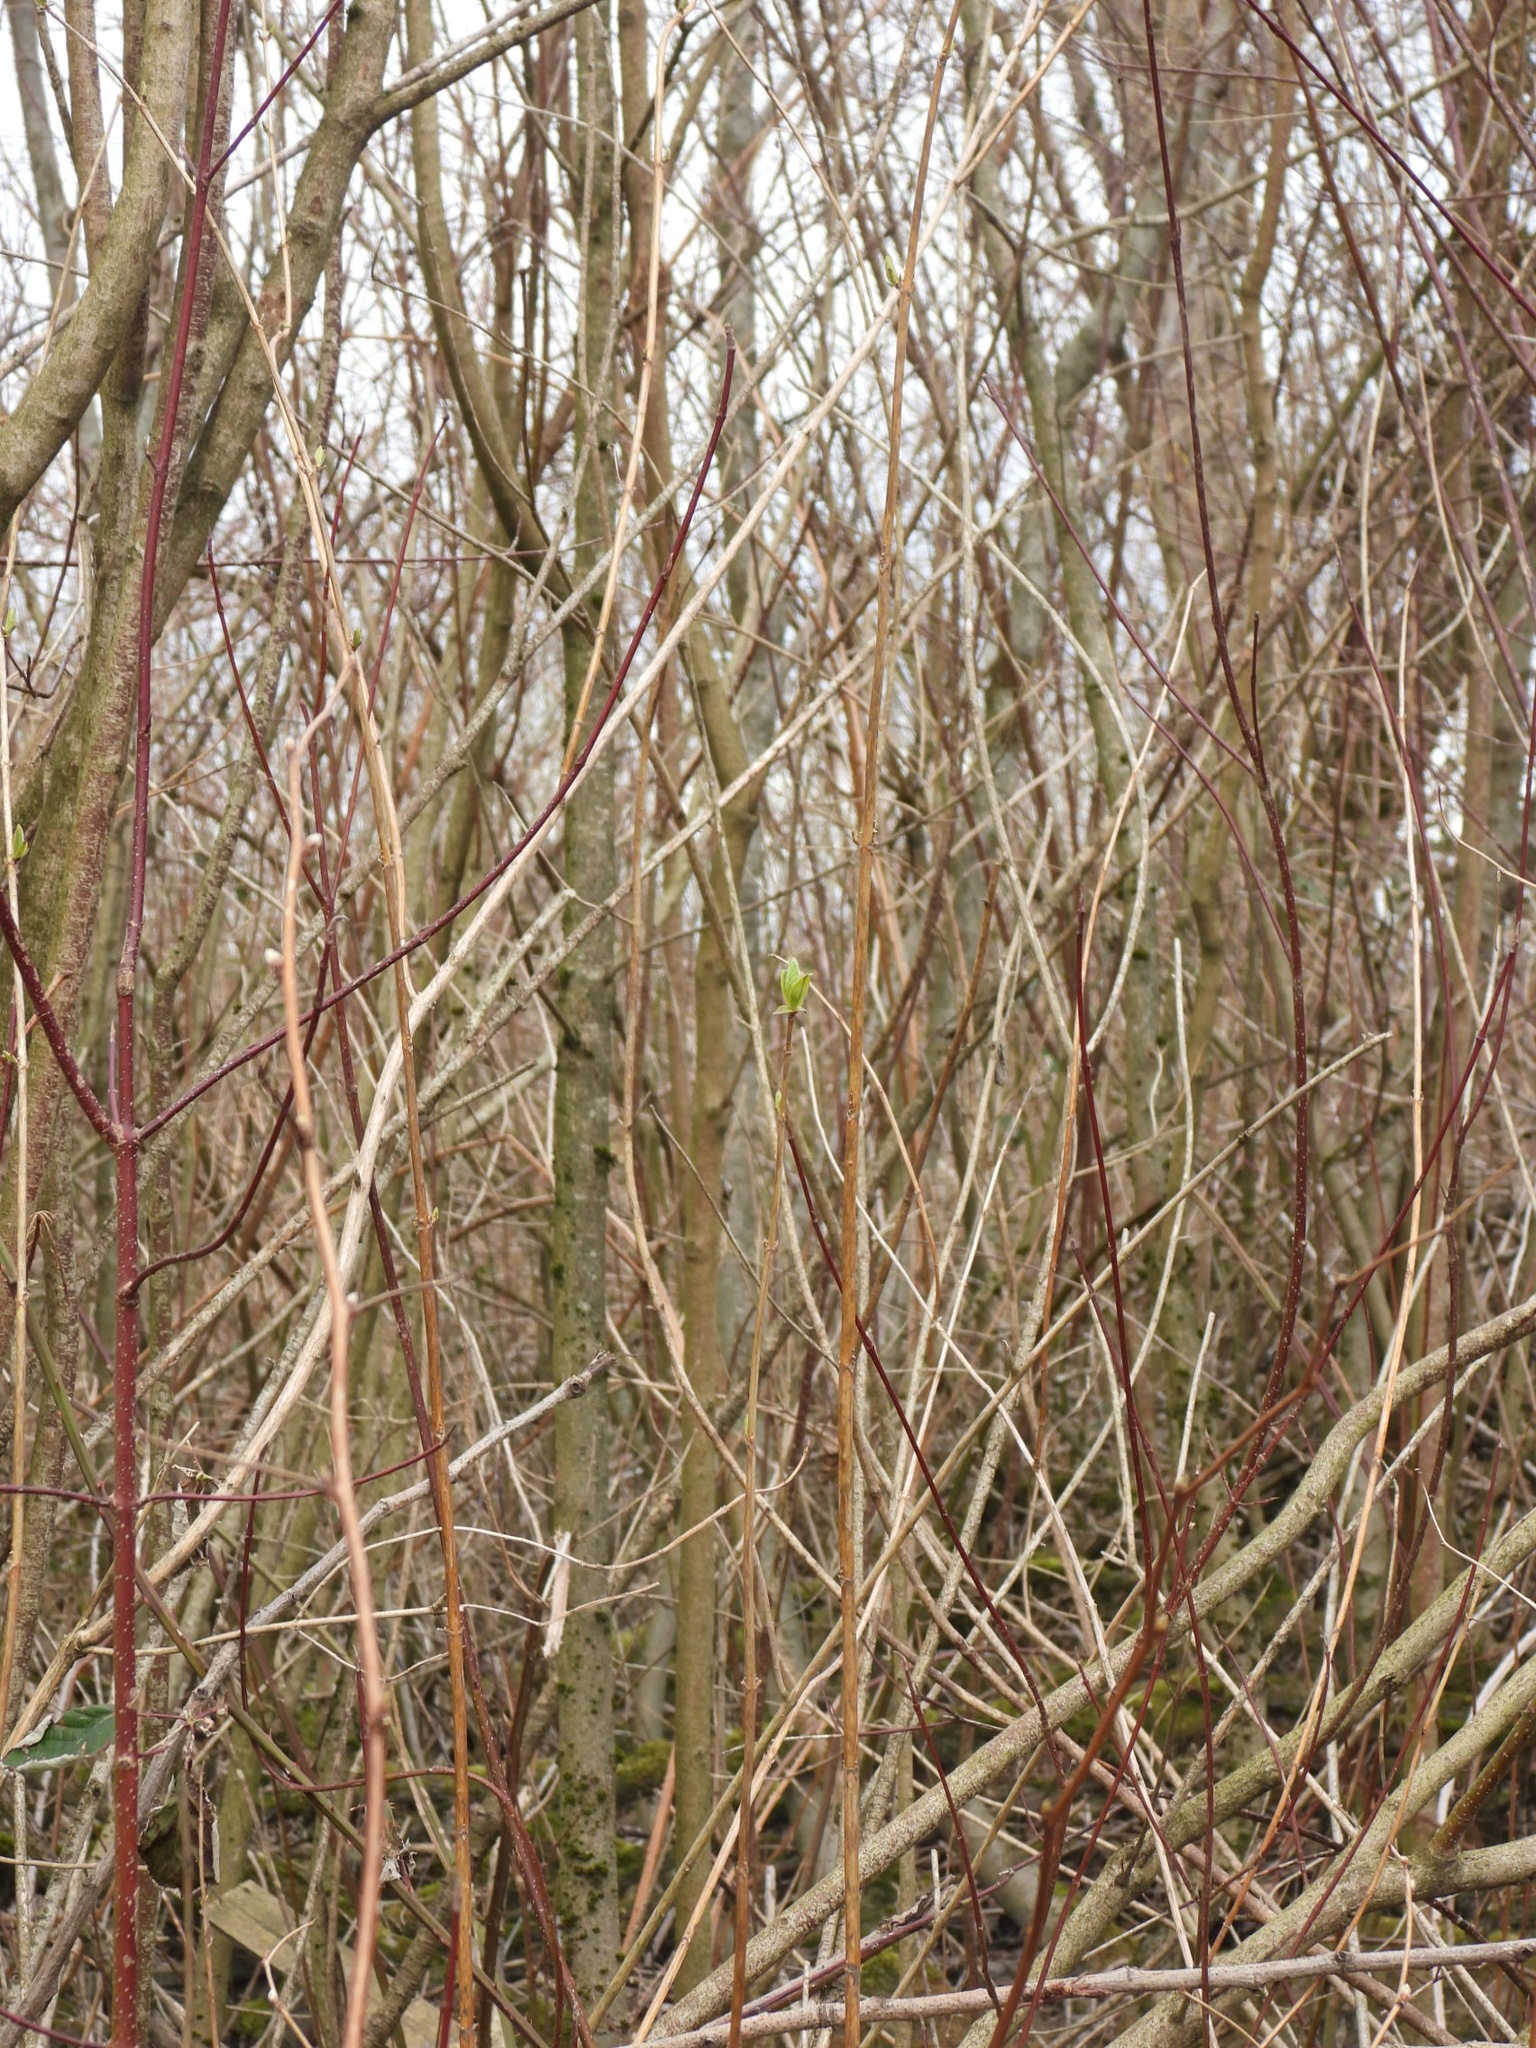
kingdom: Plantae
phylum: Tracheophyta
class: Magnoliopsida
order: Rosales
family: Rosaceae
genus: Oemleria
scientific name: Oemleria cerasiformis
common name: Osoberry
